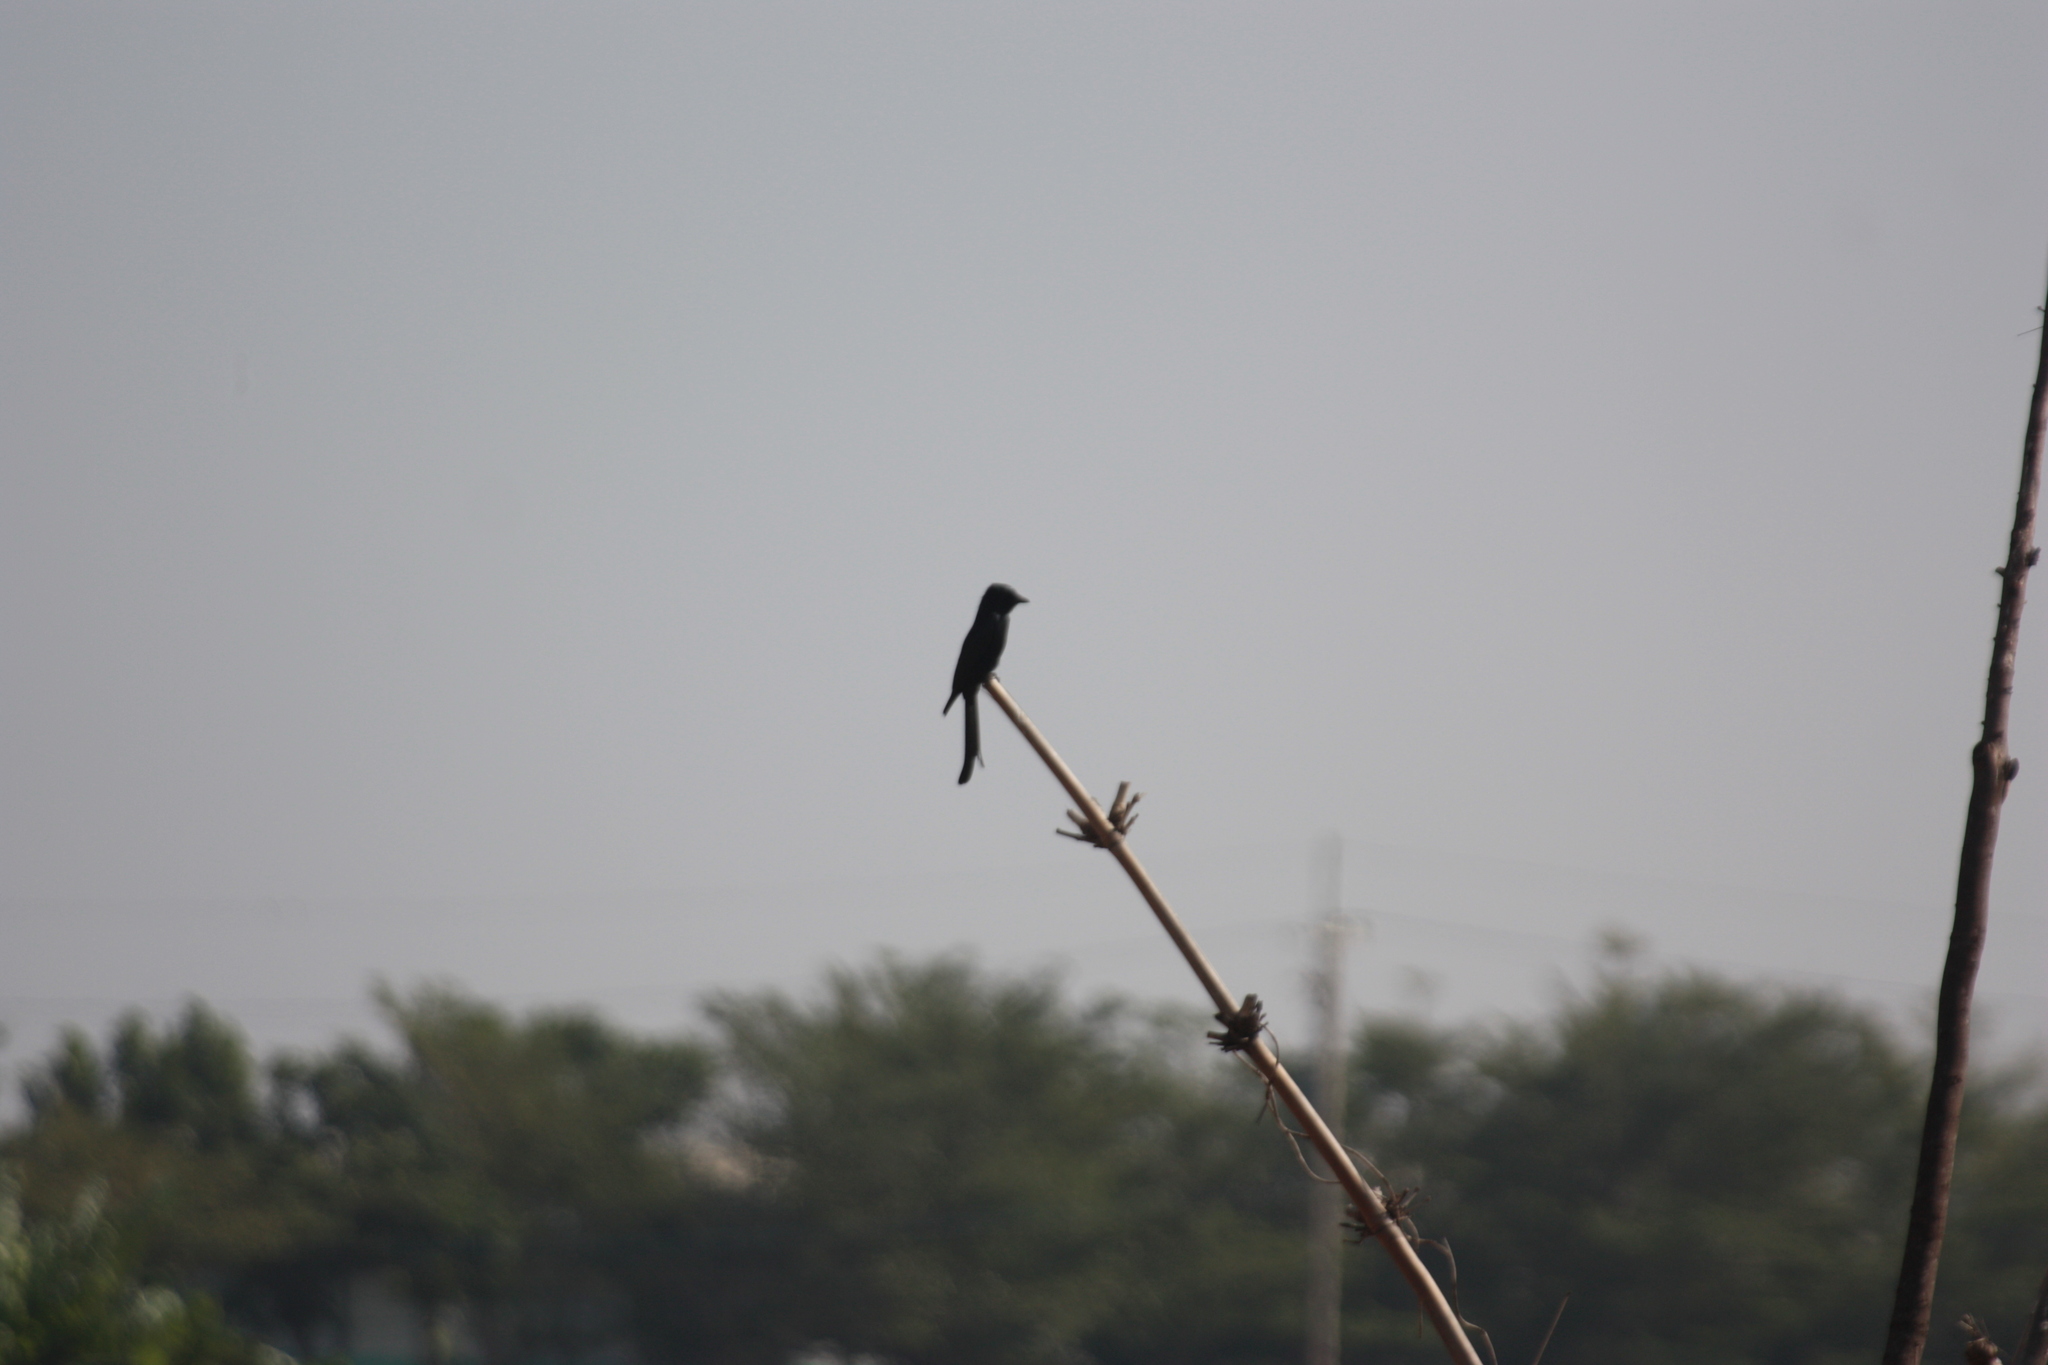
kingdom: Animalia
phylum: Chordata
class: Aves
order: Passeriformes
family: Dicruridae
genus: Dicrurus
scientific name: Dicrurus macrocercus
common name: Black drongo
